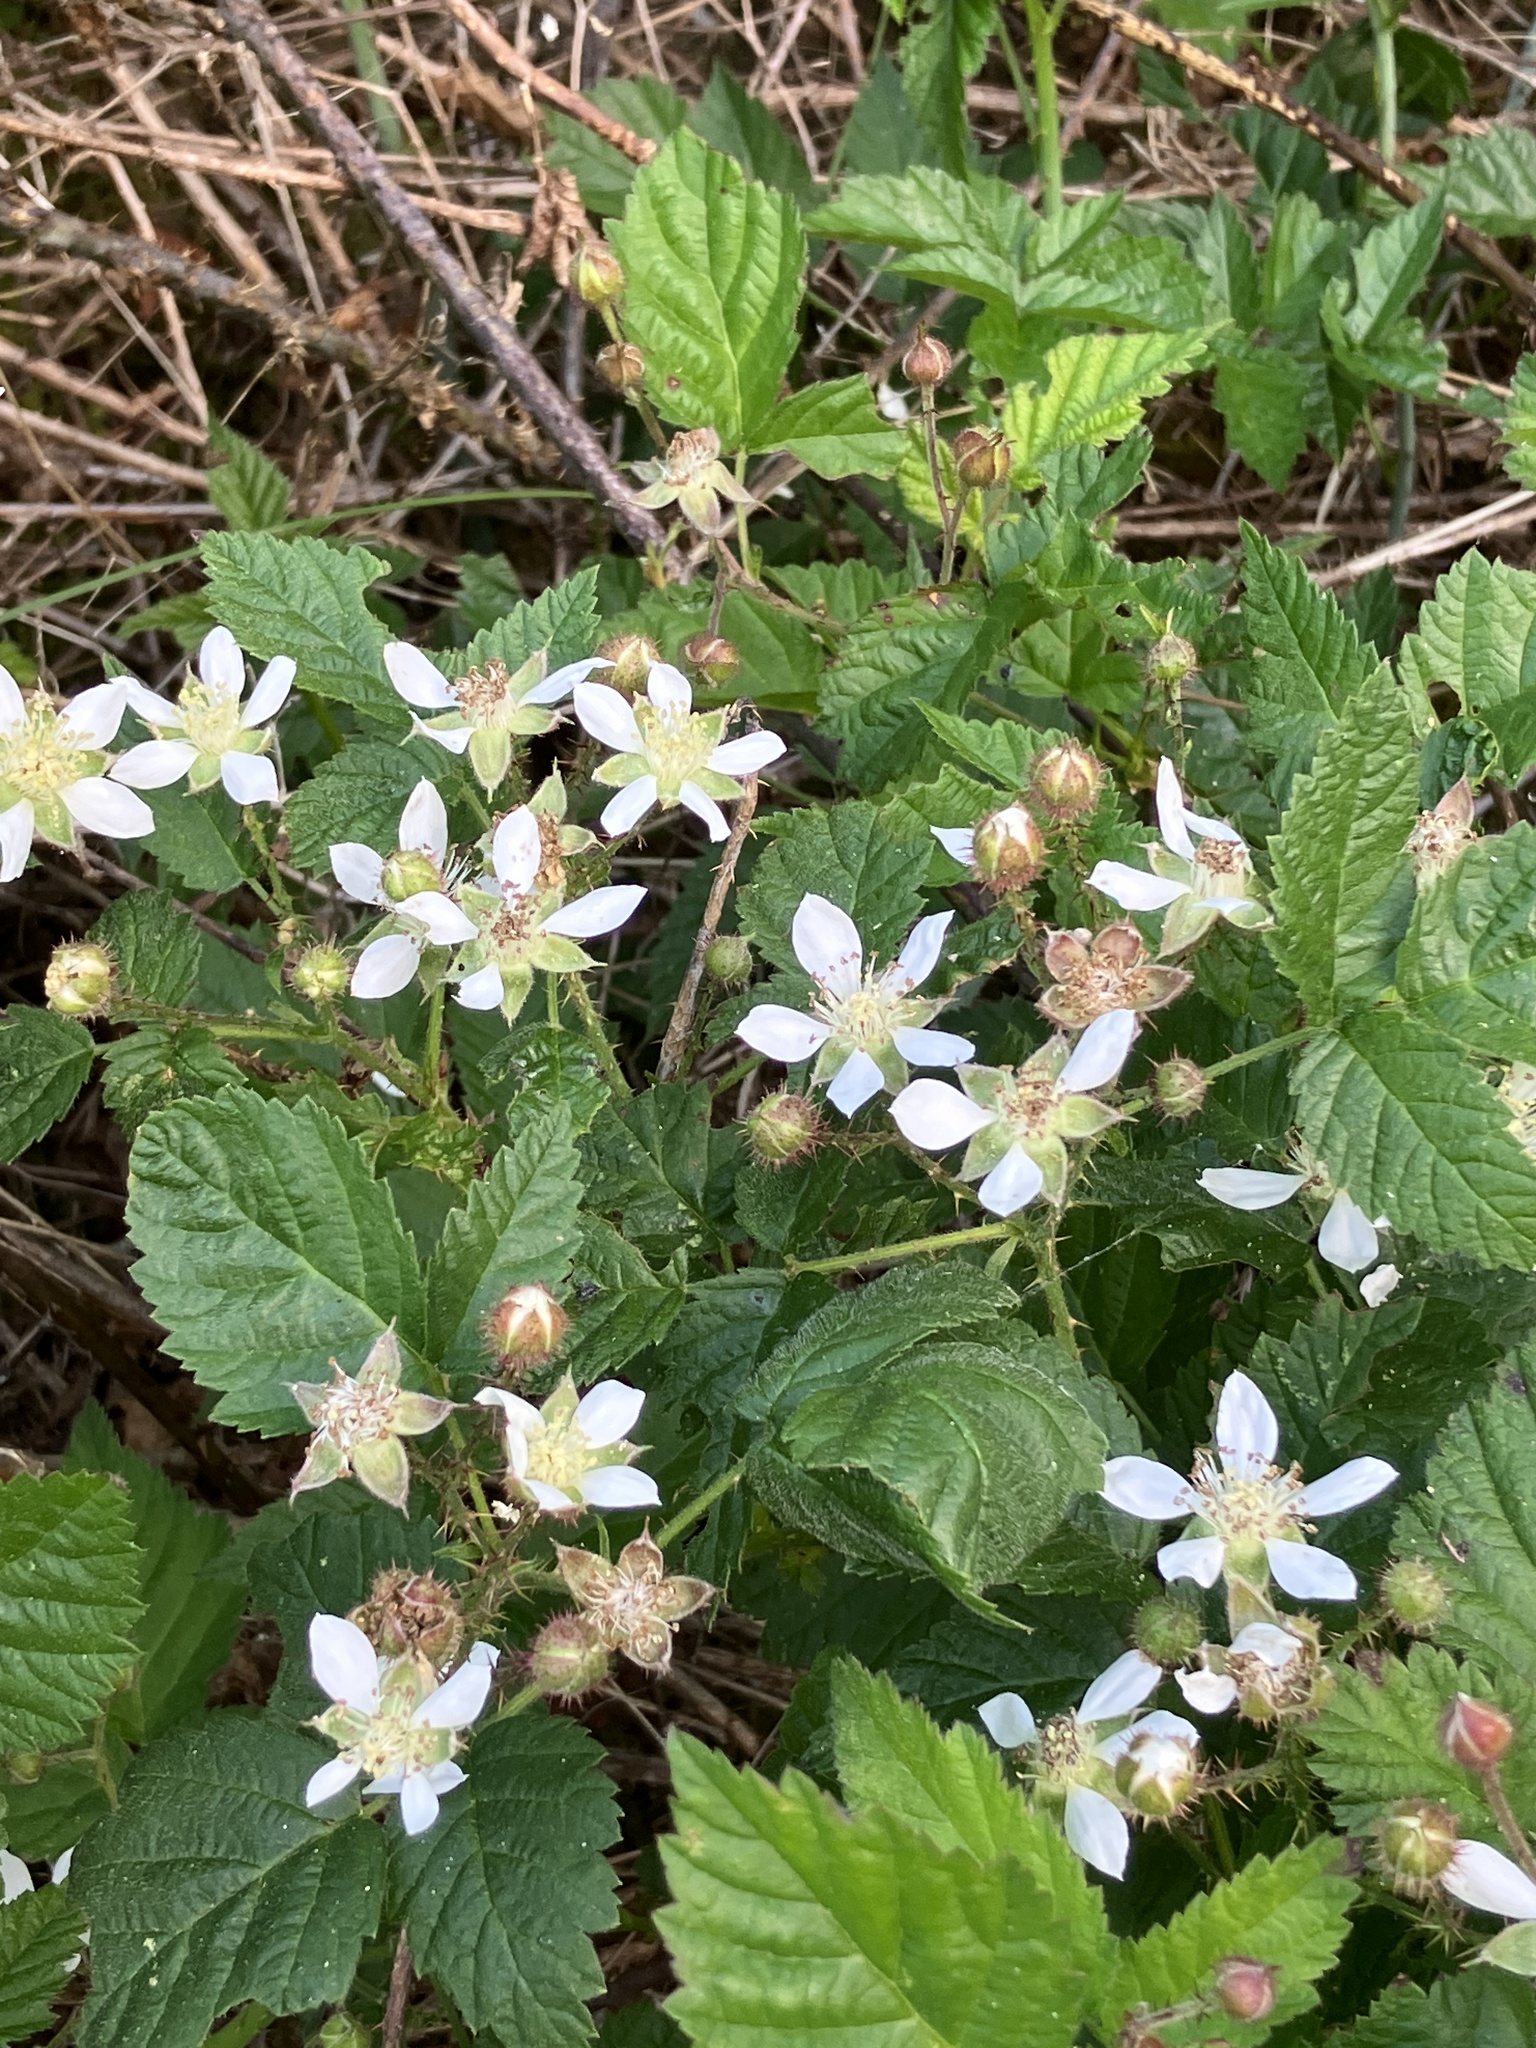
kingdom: Plantae
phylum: Tracheophyta
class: Magnoliopsida
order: Rosales
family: Rosaceae
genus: Rubus
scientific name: Rubus ursinus
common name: Pacific blackberry
